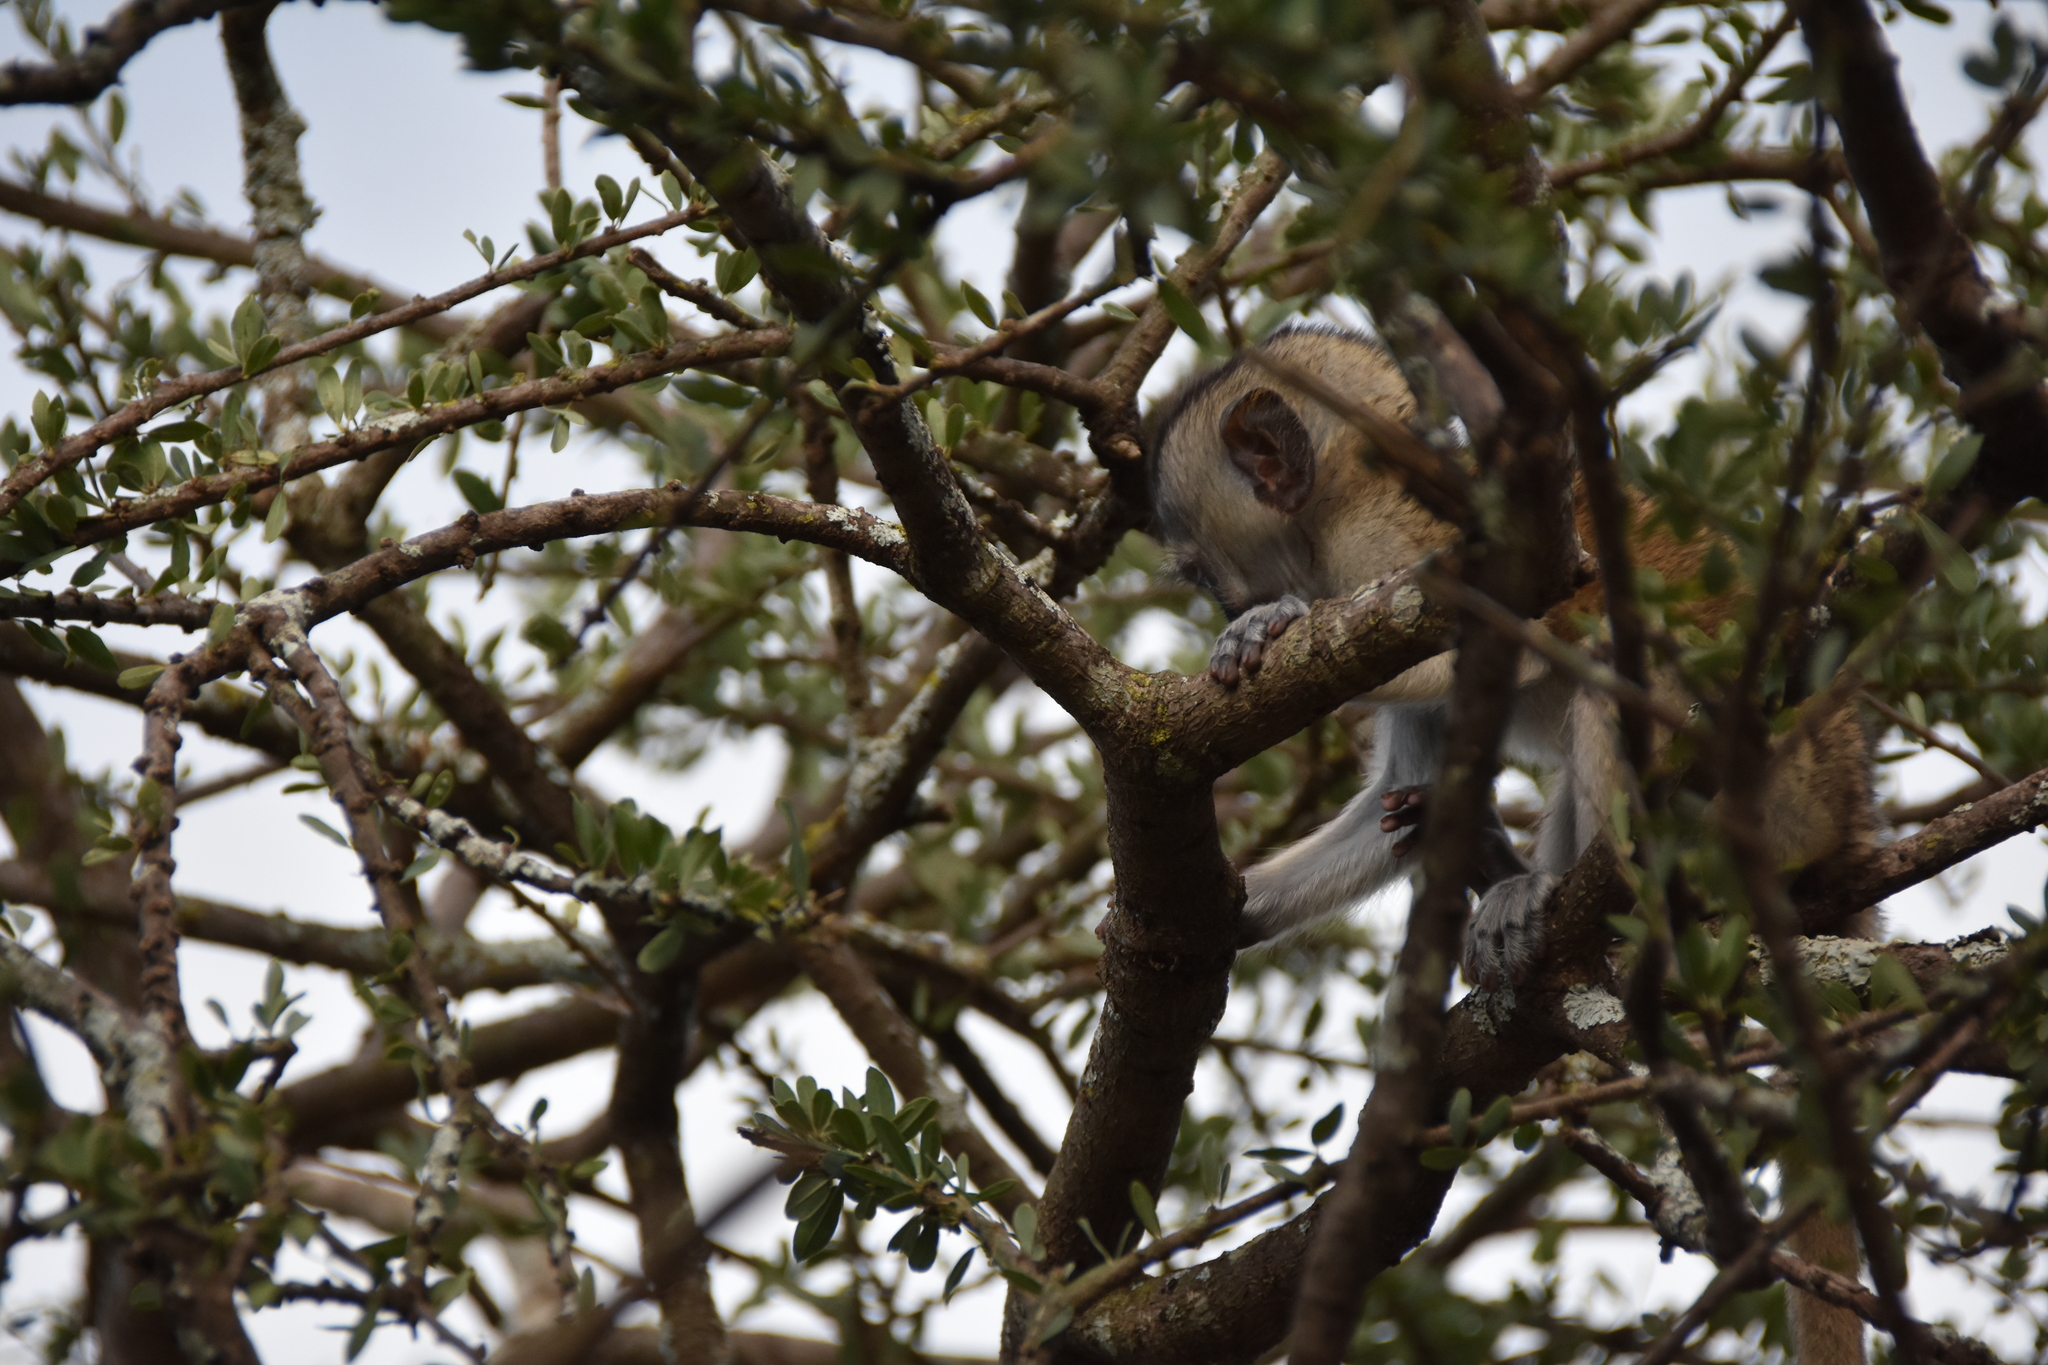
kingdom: Animalia
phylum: Chordata
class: Mammalia
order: Primates
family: Cercopithecidae
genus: Chlorocebus
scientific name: Chlorocebus pygerythrus
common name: Vervet monkey
